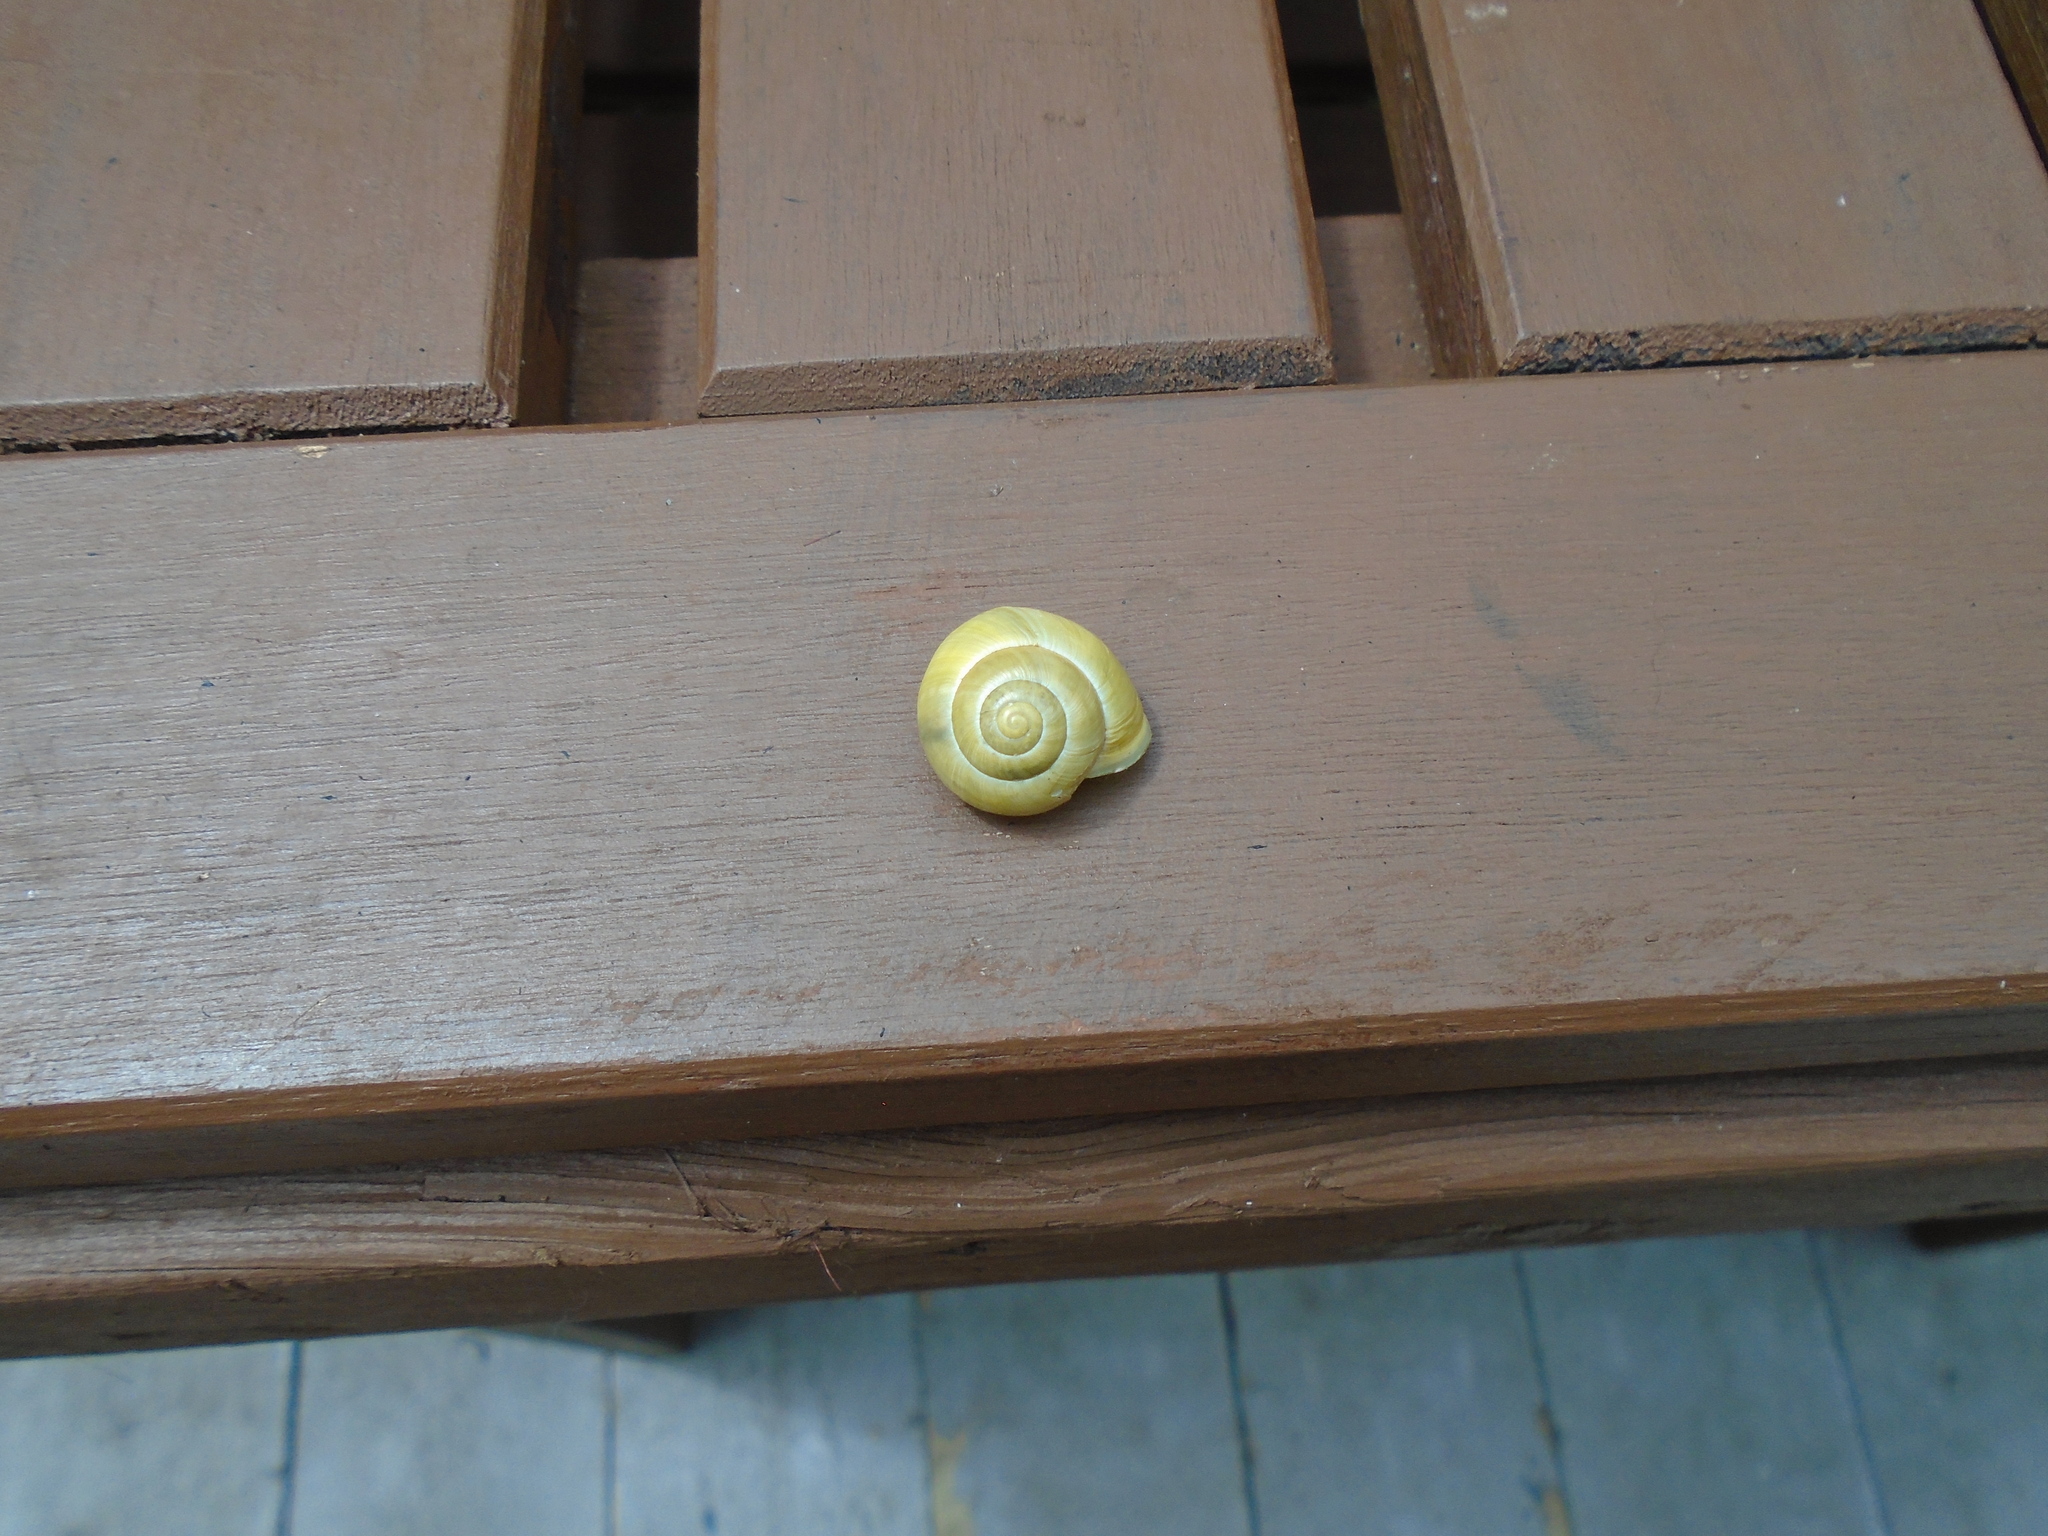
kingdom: Animalia
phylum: Mollusca
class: Gastropoda
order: Stylommatophora
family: Helicidae
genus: Cepaea
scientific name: Cepaea hortensis
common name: White-lip gardensnail
